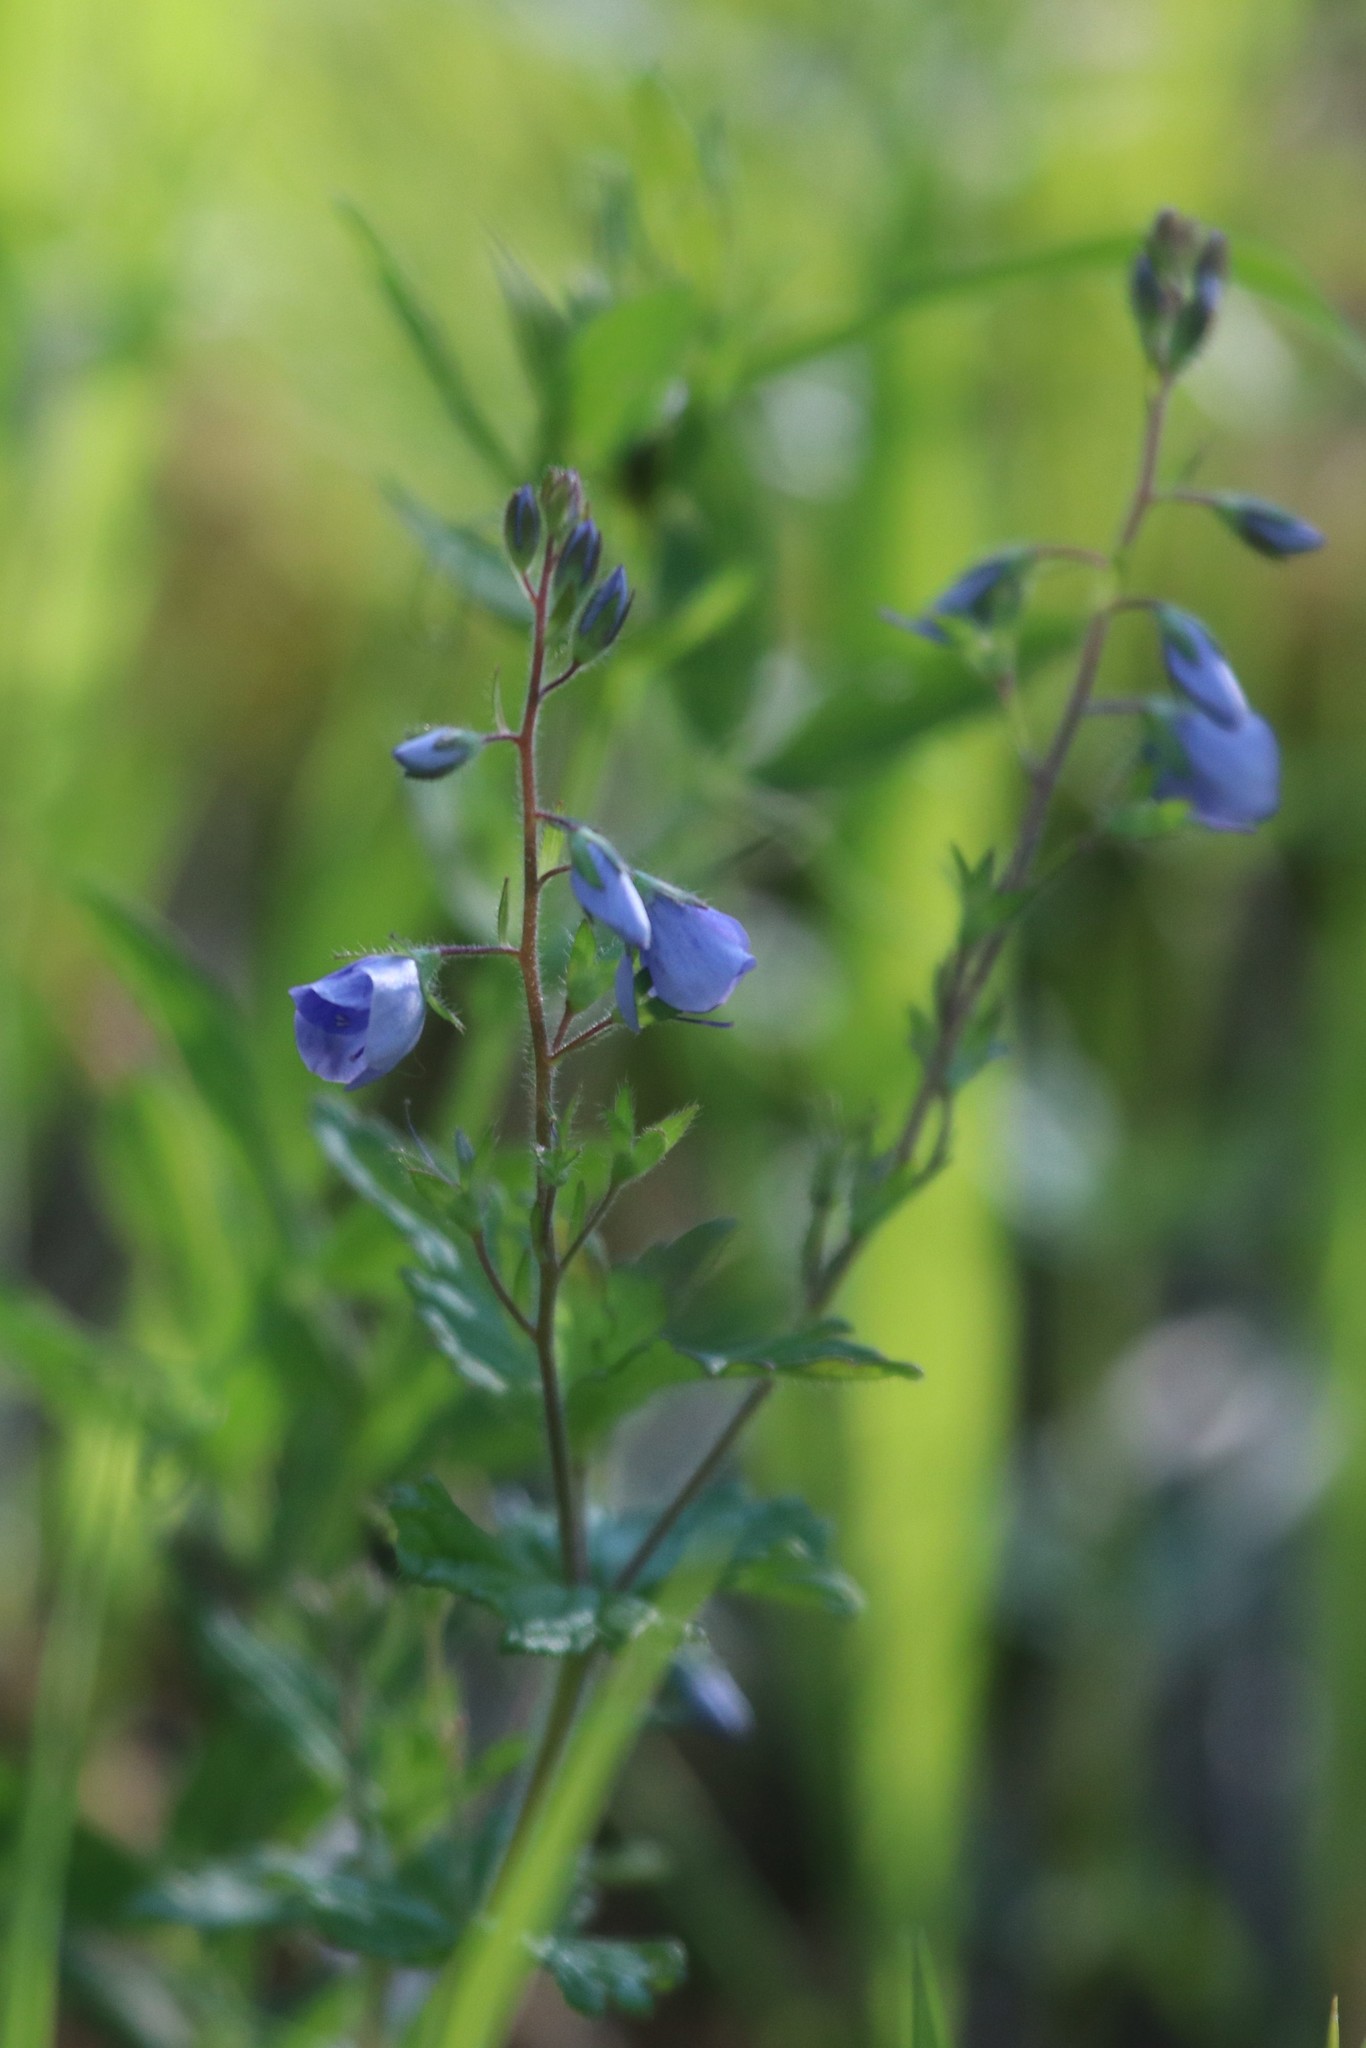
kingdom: Plantae
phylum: Tracheophyta
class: Magnoliopsida
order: Lamiales
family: Plantaginaceae
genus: Veronica
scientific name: Veronica chamaedrys
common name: Germander speedwell
